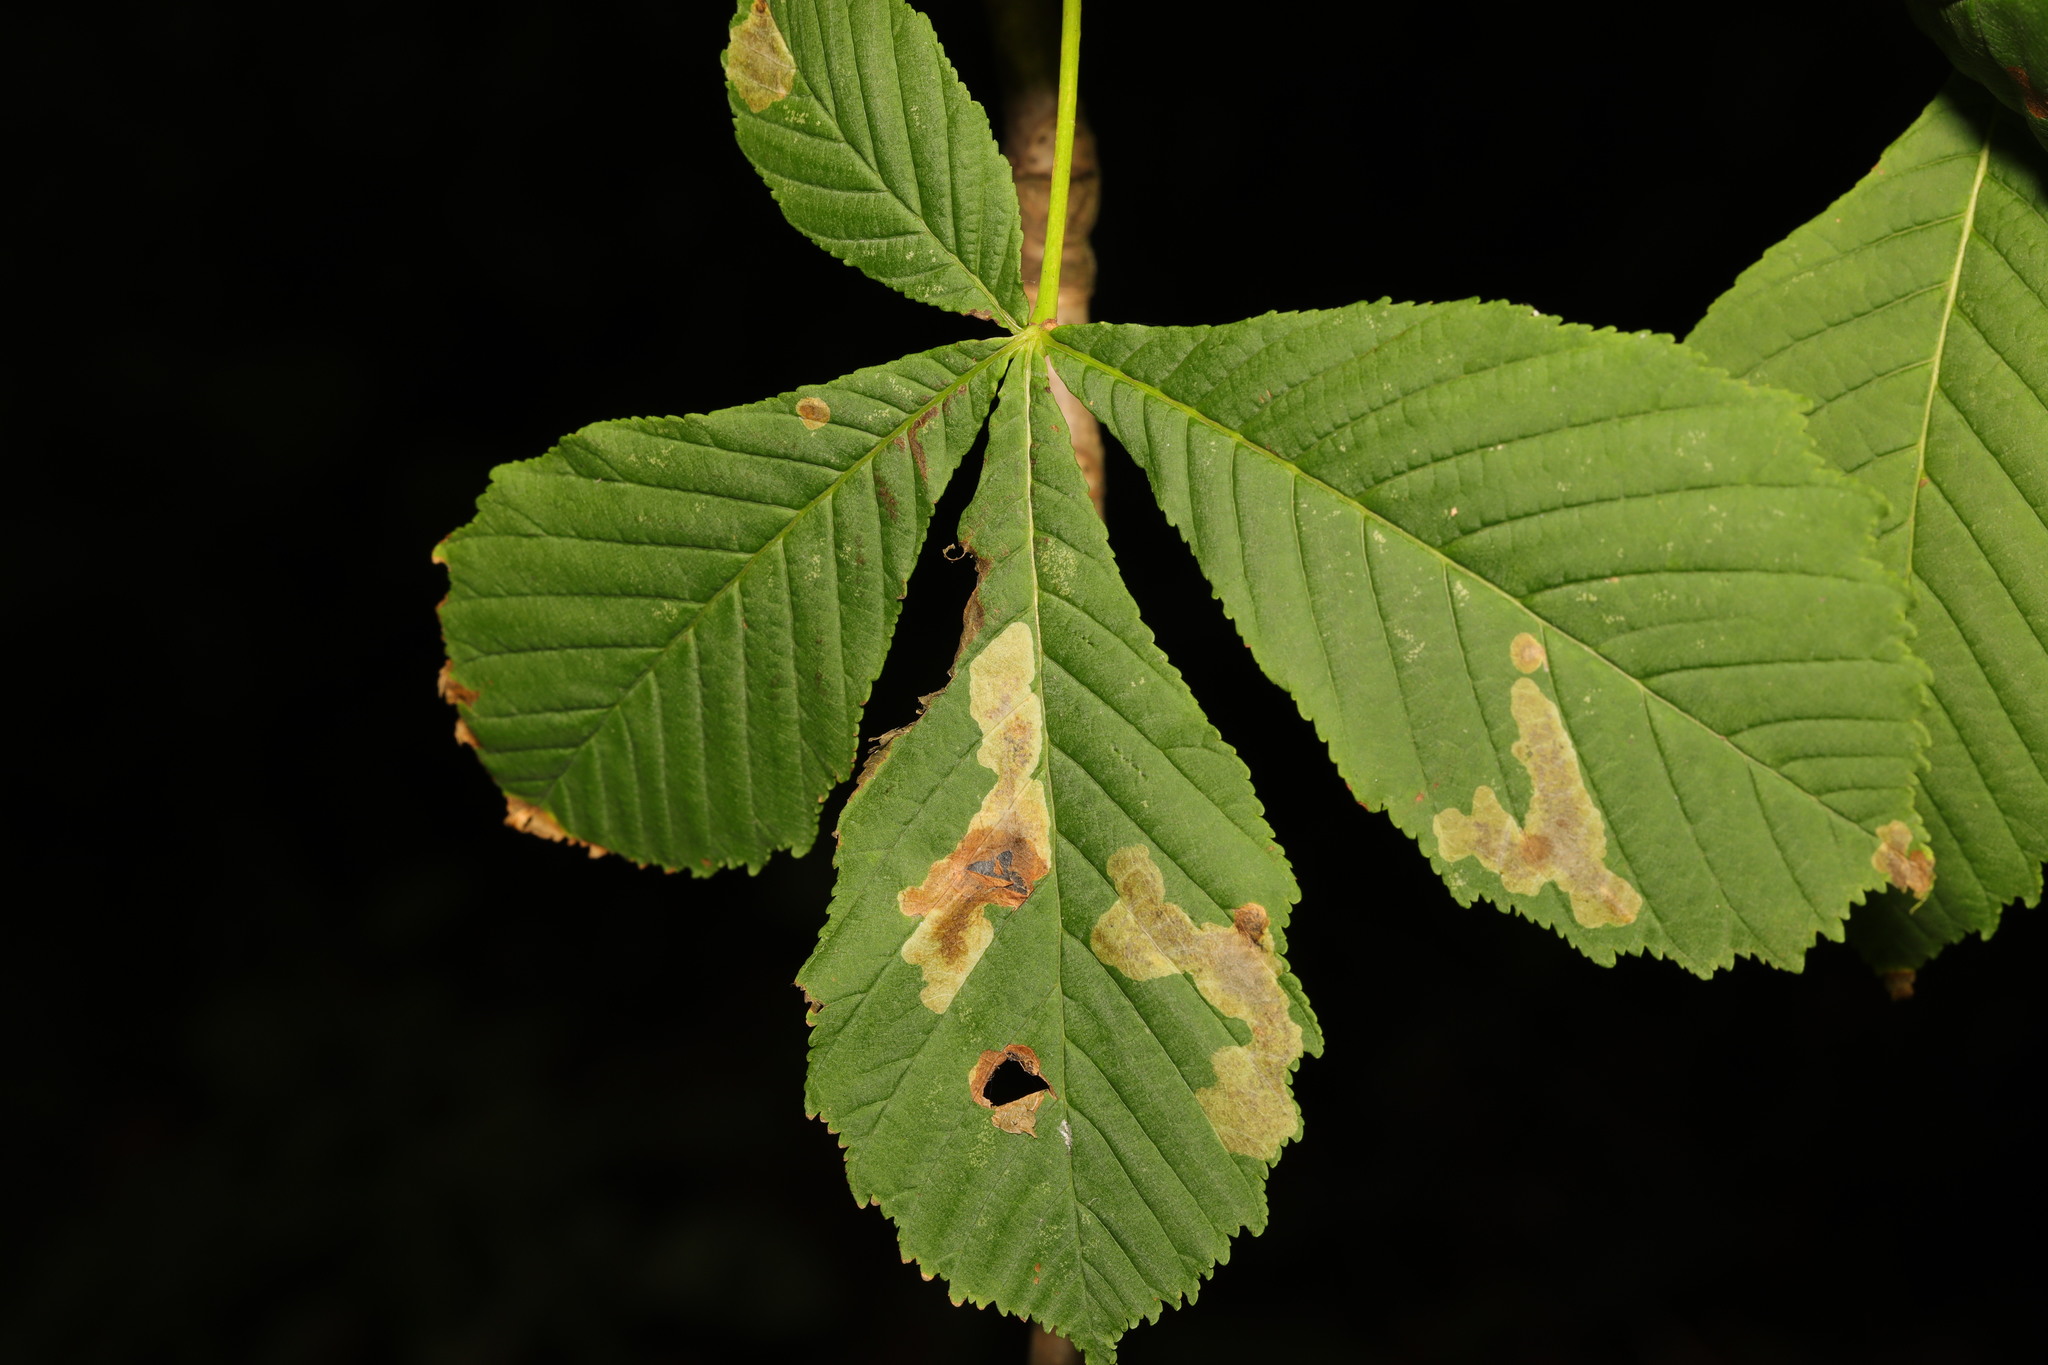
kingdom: Plantae
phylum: Tracheophyta
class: Magnoliopsida
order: Sapindales
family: Sapindaceae
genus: Aesculus
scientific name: Aesculus hippocastanum
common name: Horse-chestnut
